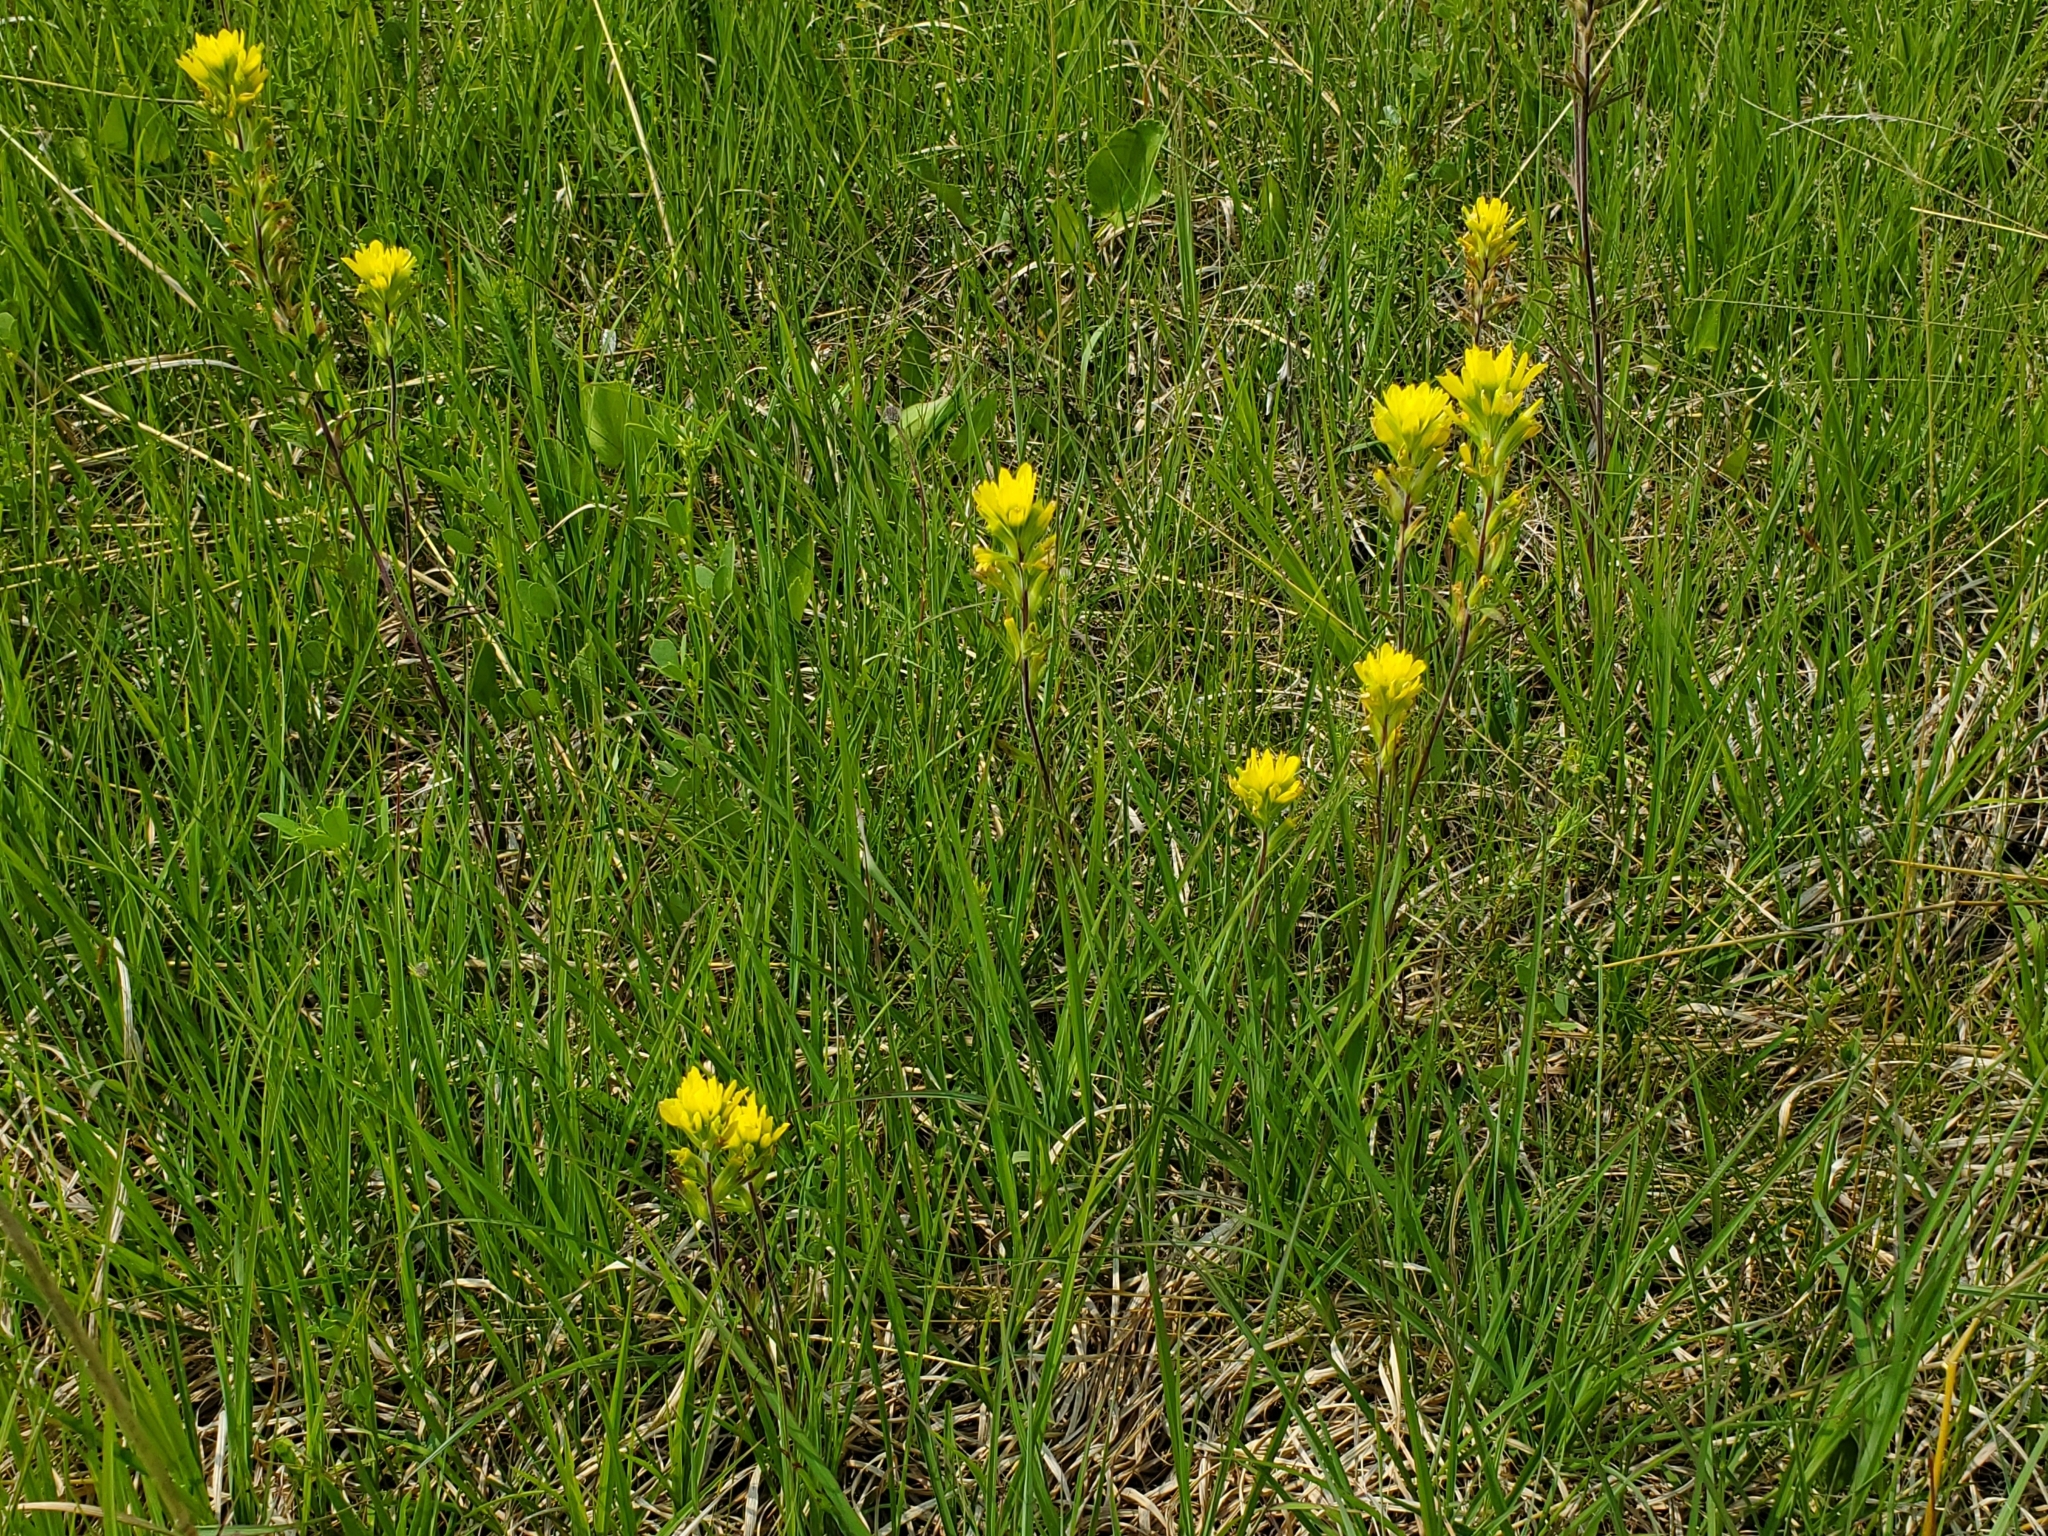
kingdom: Plantae
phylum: Tracheophyta
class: Magnoliopsida
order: Lamiales
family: Orobanchaceae
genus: Castilleja
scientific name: Castilleja coccinea
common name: Scarlet paintbrush
